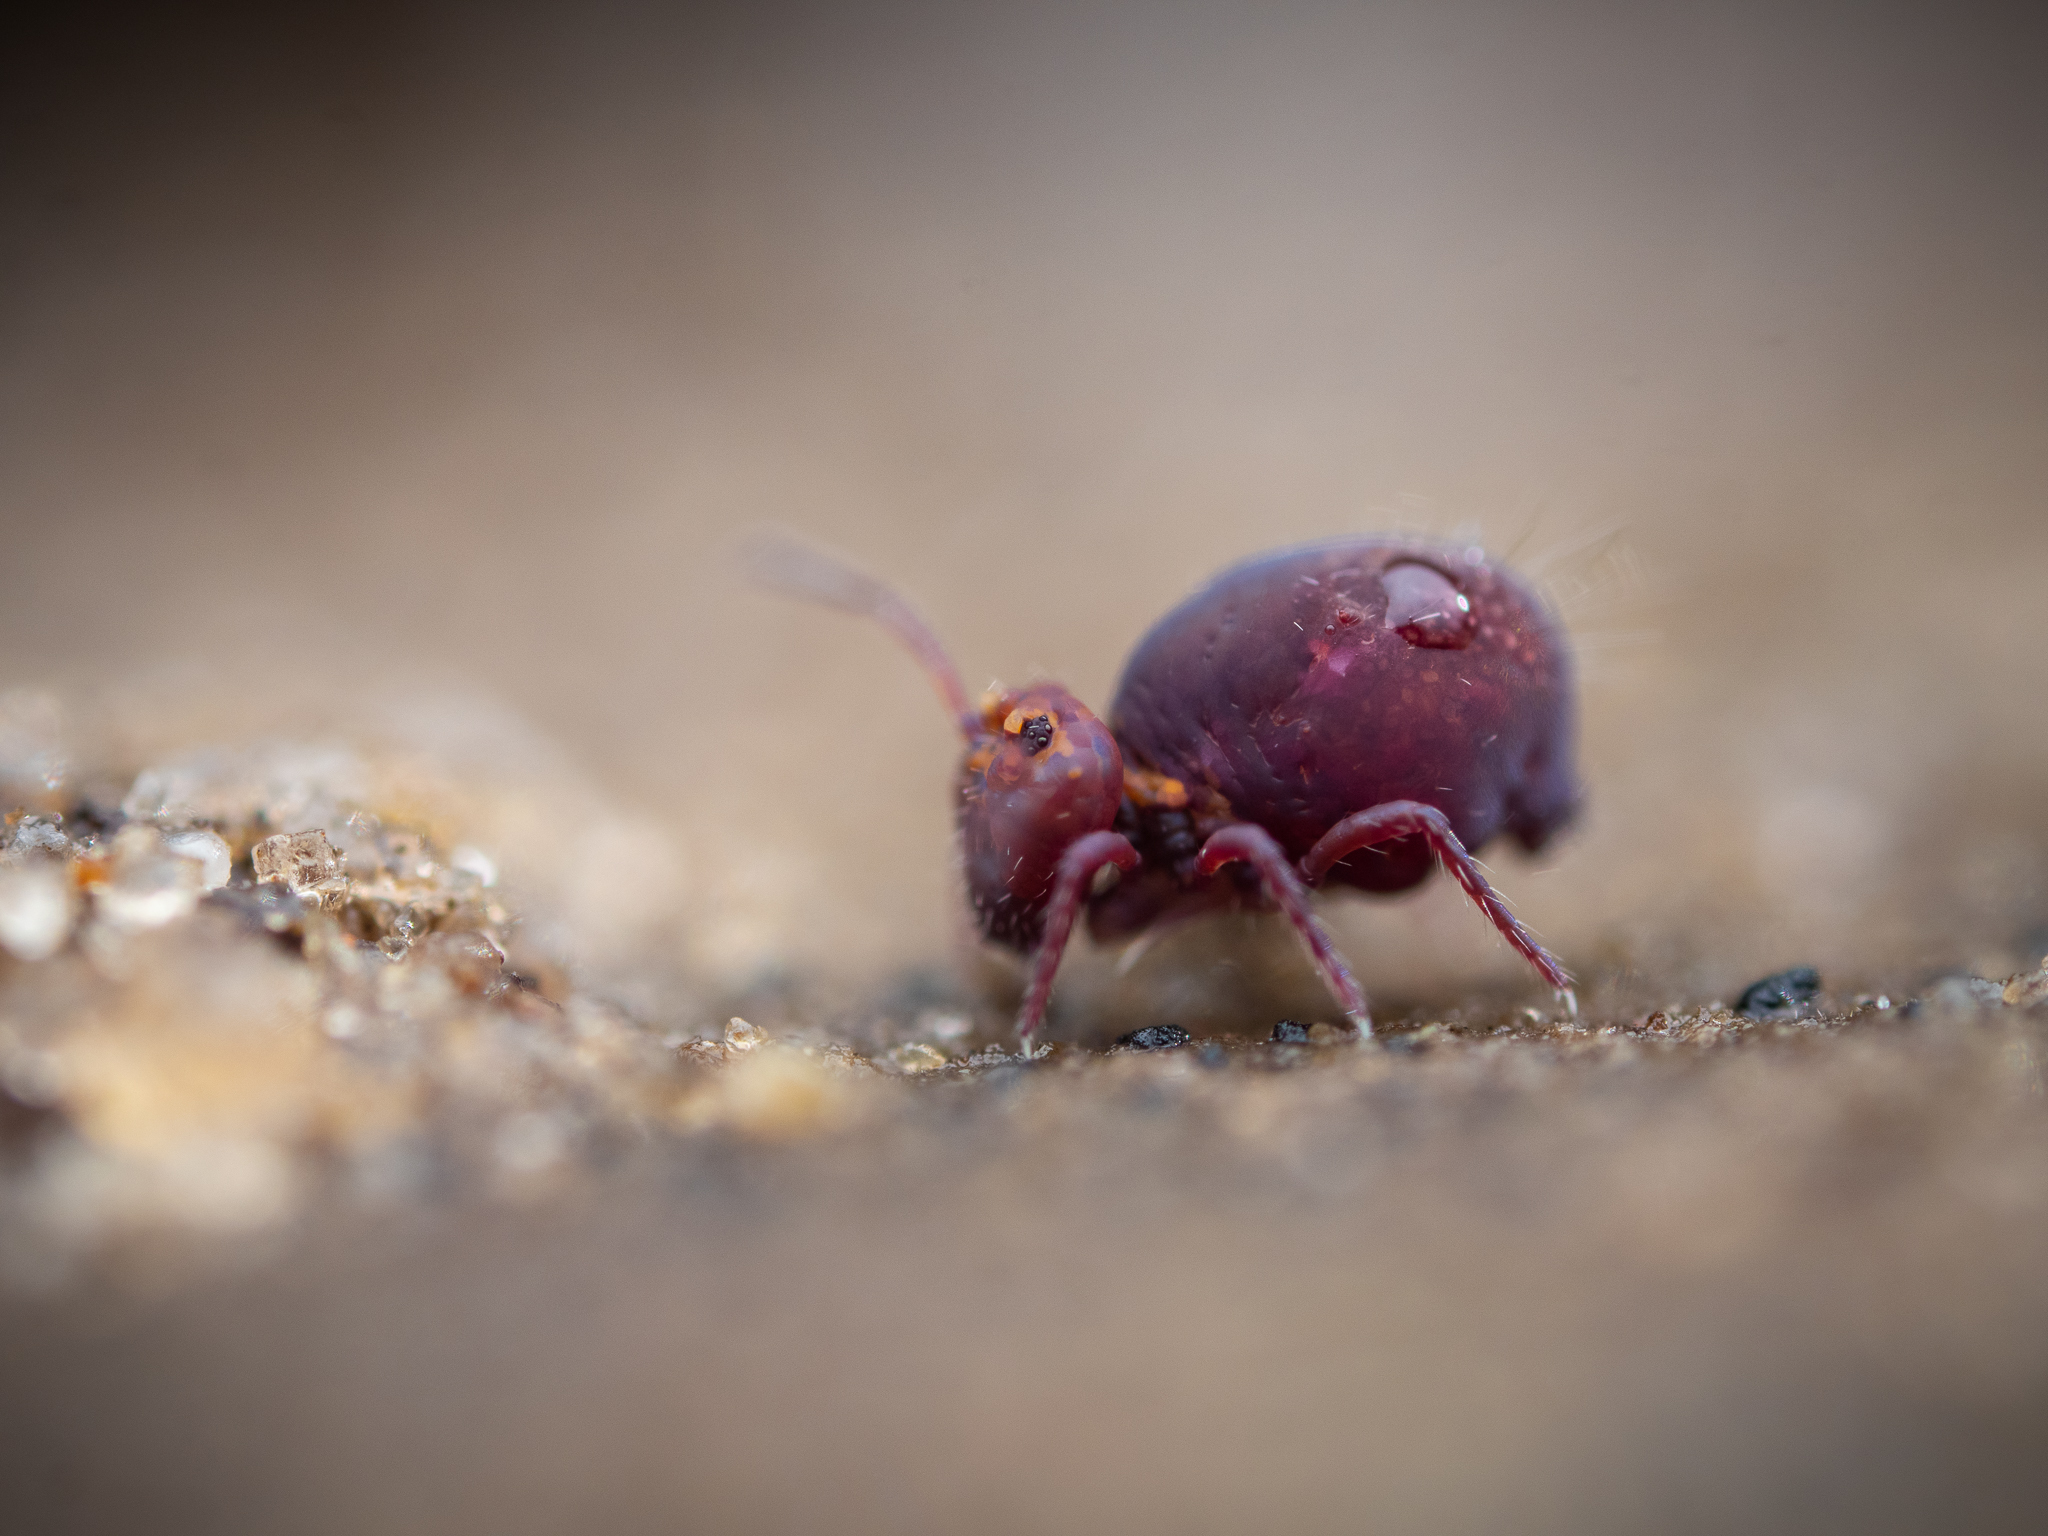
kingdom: Animalia
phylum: Arthropoda
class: Collembola
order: Symphypleona
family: Dicyrtomidae
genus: Dicyrtoma
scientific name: Dicyrtoma fusca
